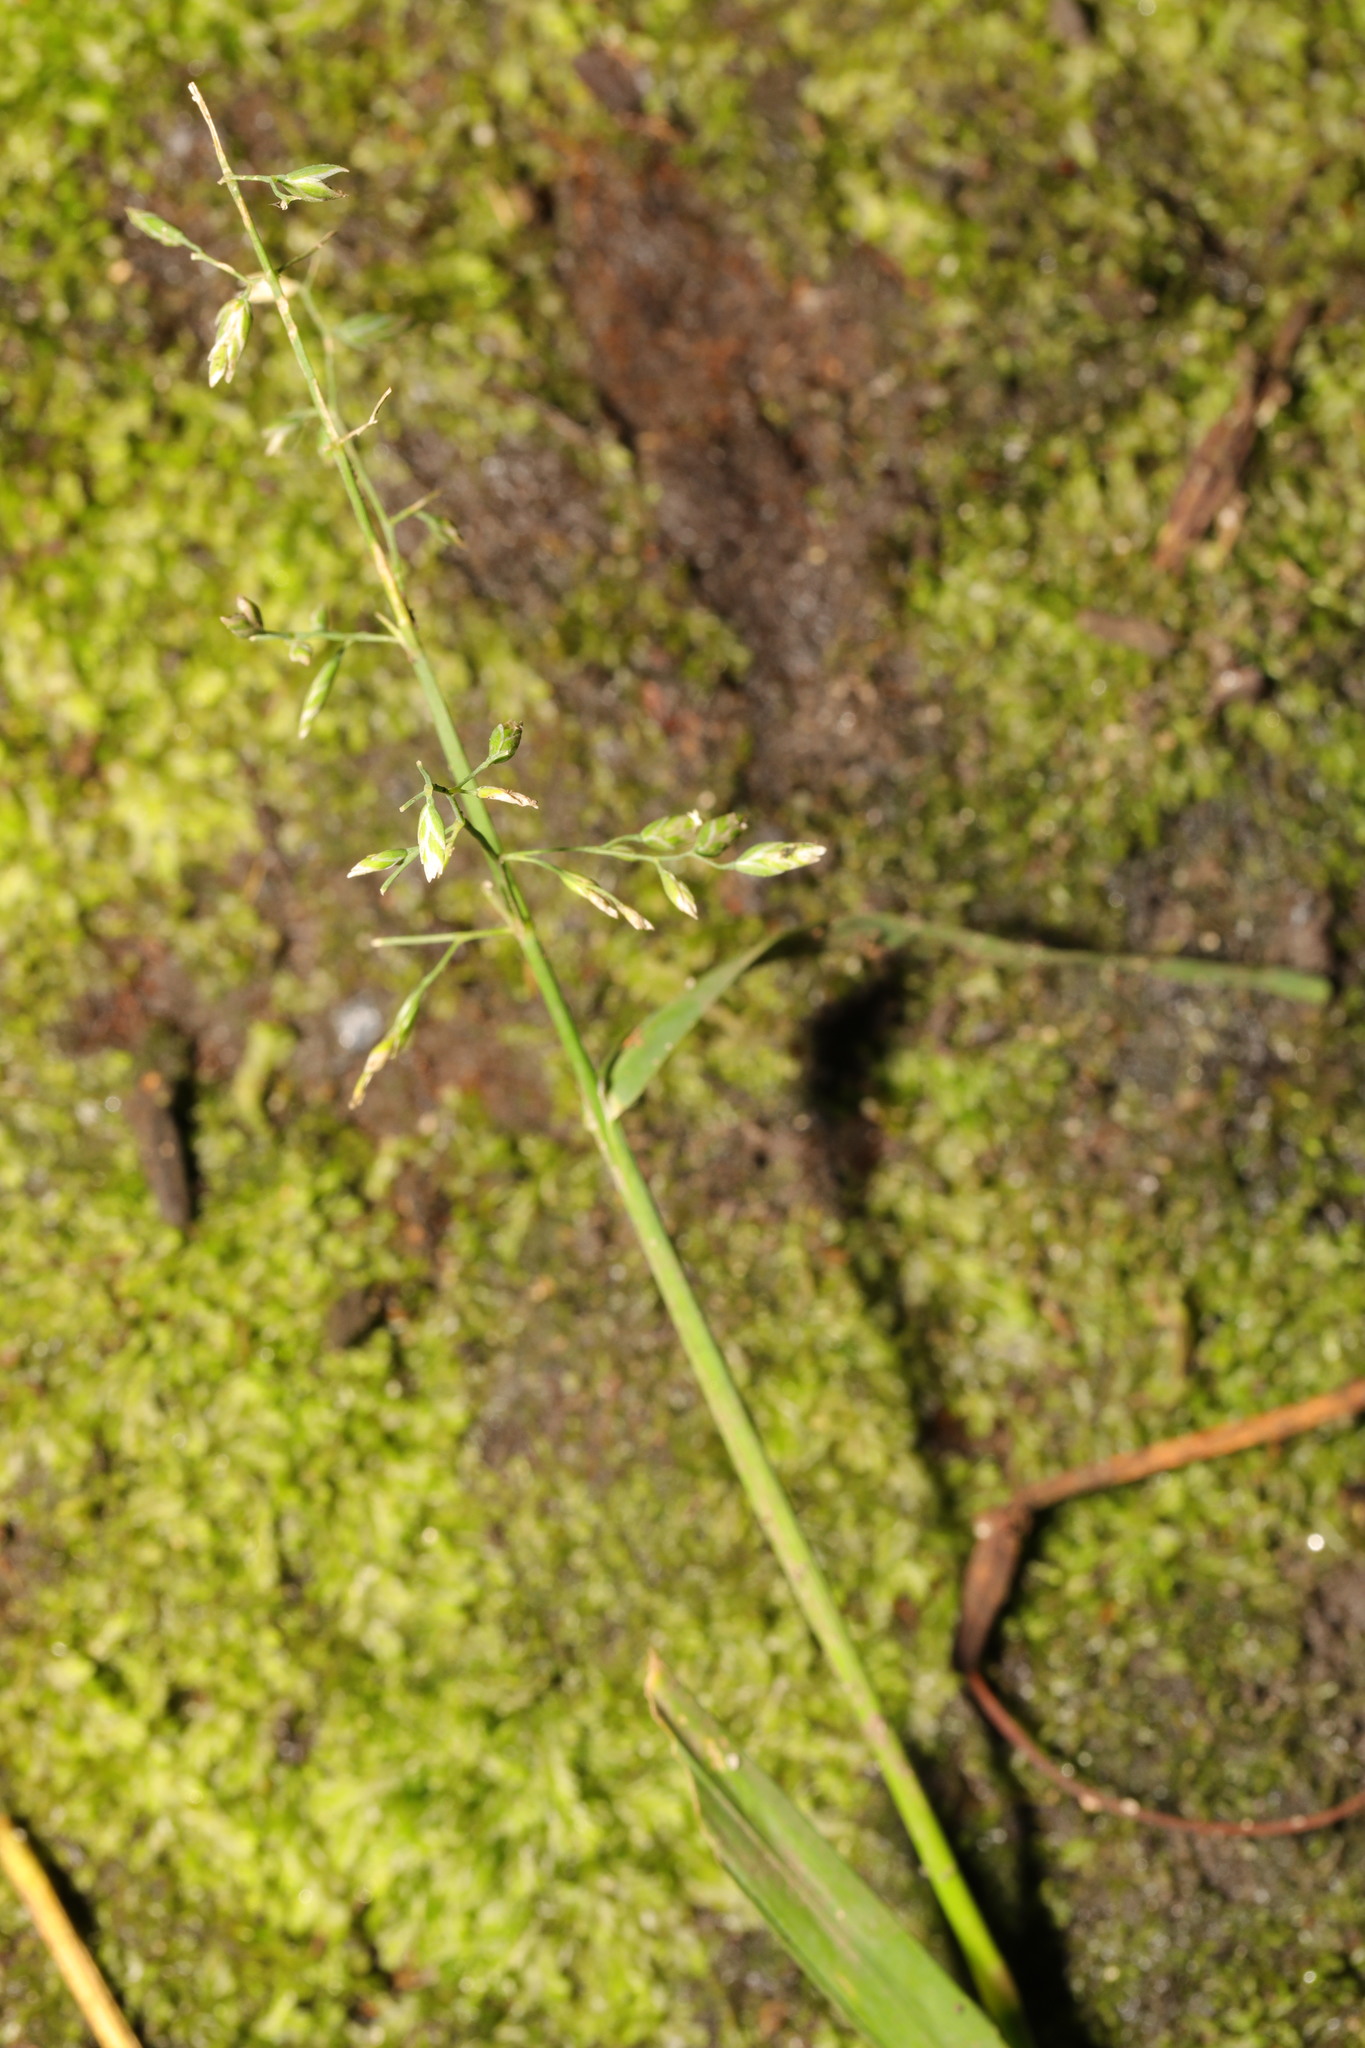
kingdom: Plantae
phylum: Tracheophyta
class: Liliopsida
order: Poales
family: Poaceae
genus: Poa
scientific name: Poa annua
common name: Annual bluegrass
